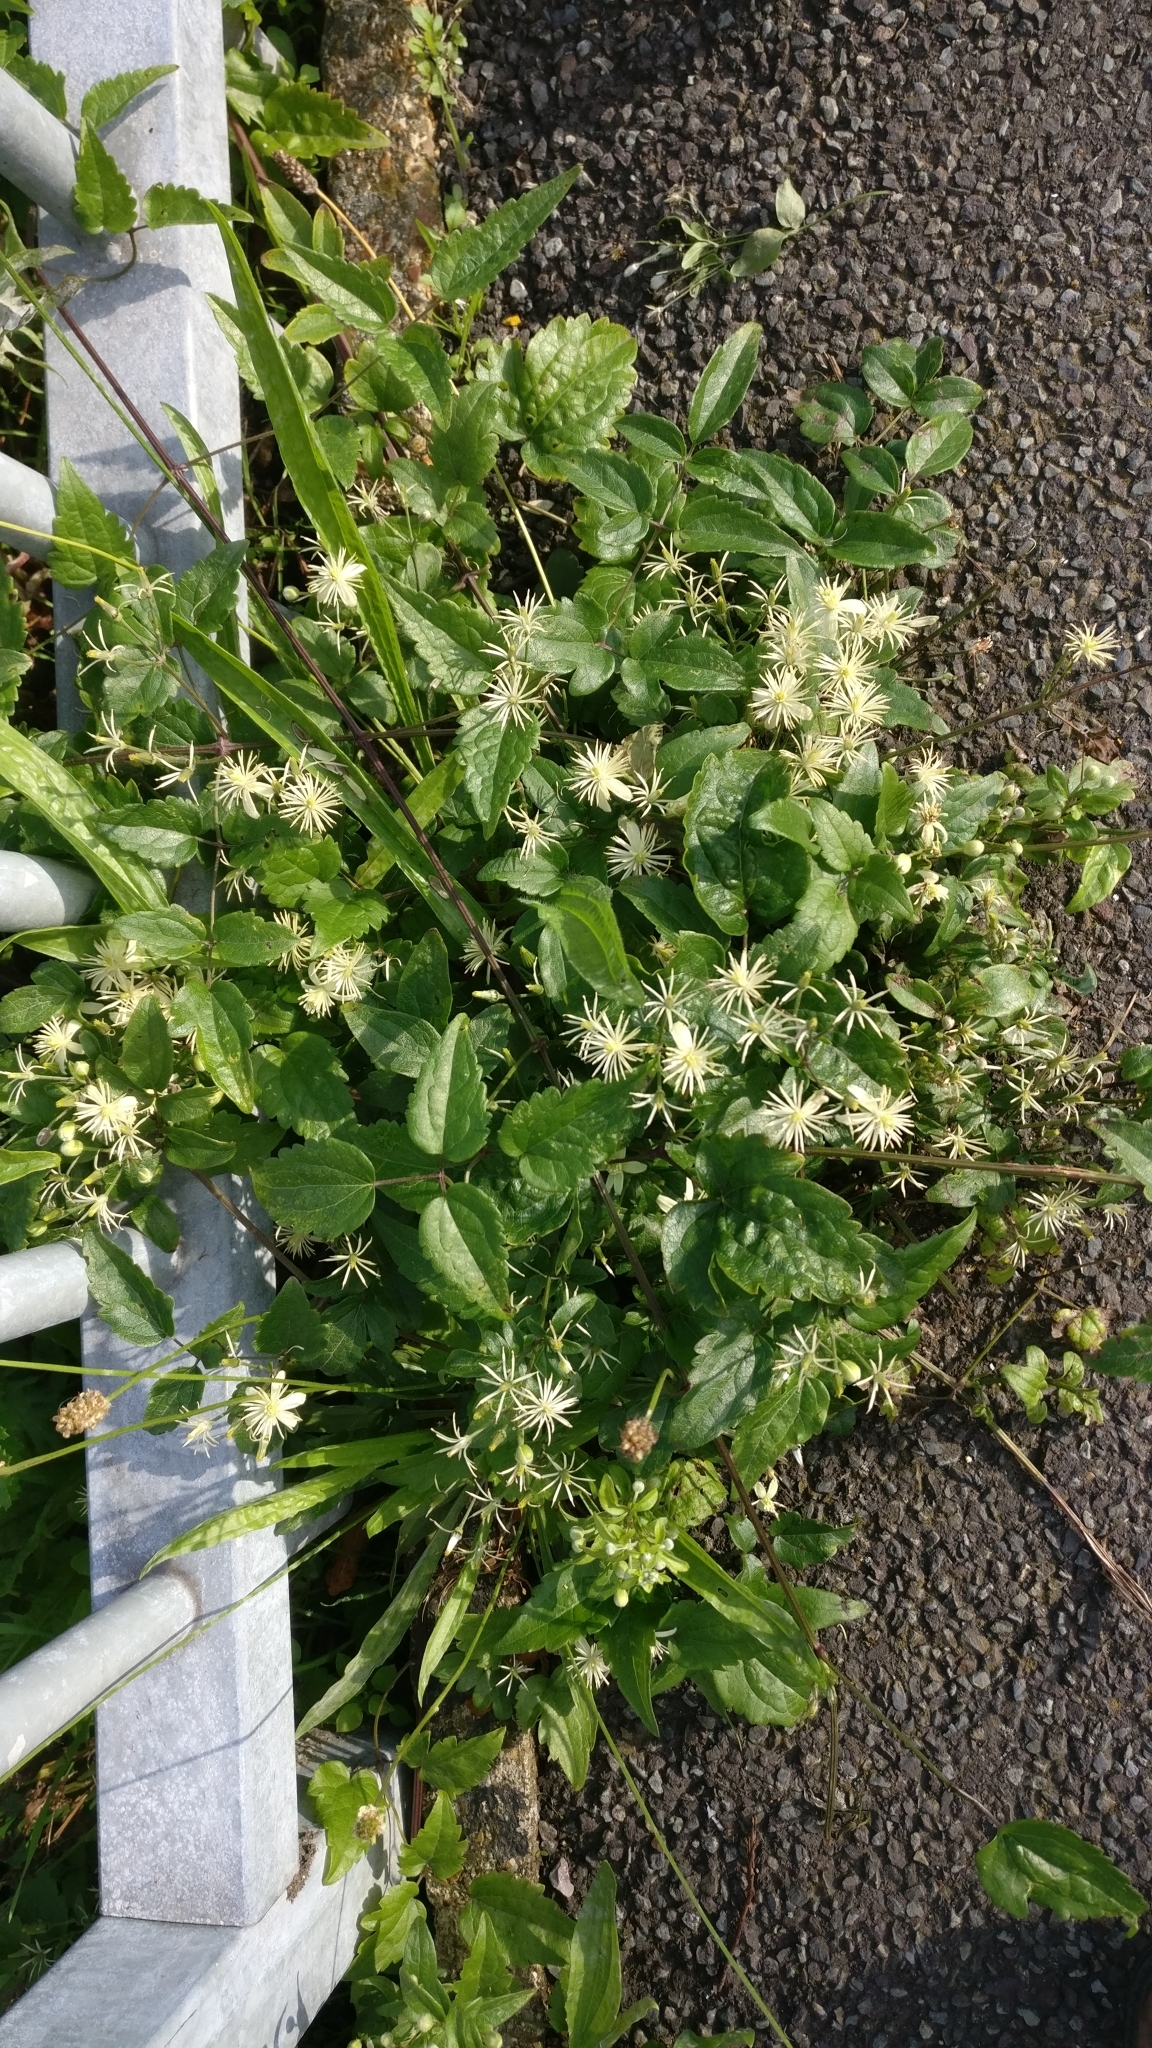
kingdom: Plantae
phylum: Tracheophyta
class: Magnoliopsida
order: Ranunculales
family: Ranunculaceae
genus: Clematis
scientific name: Clematis vitalba
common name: Evergreen clematis
